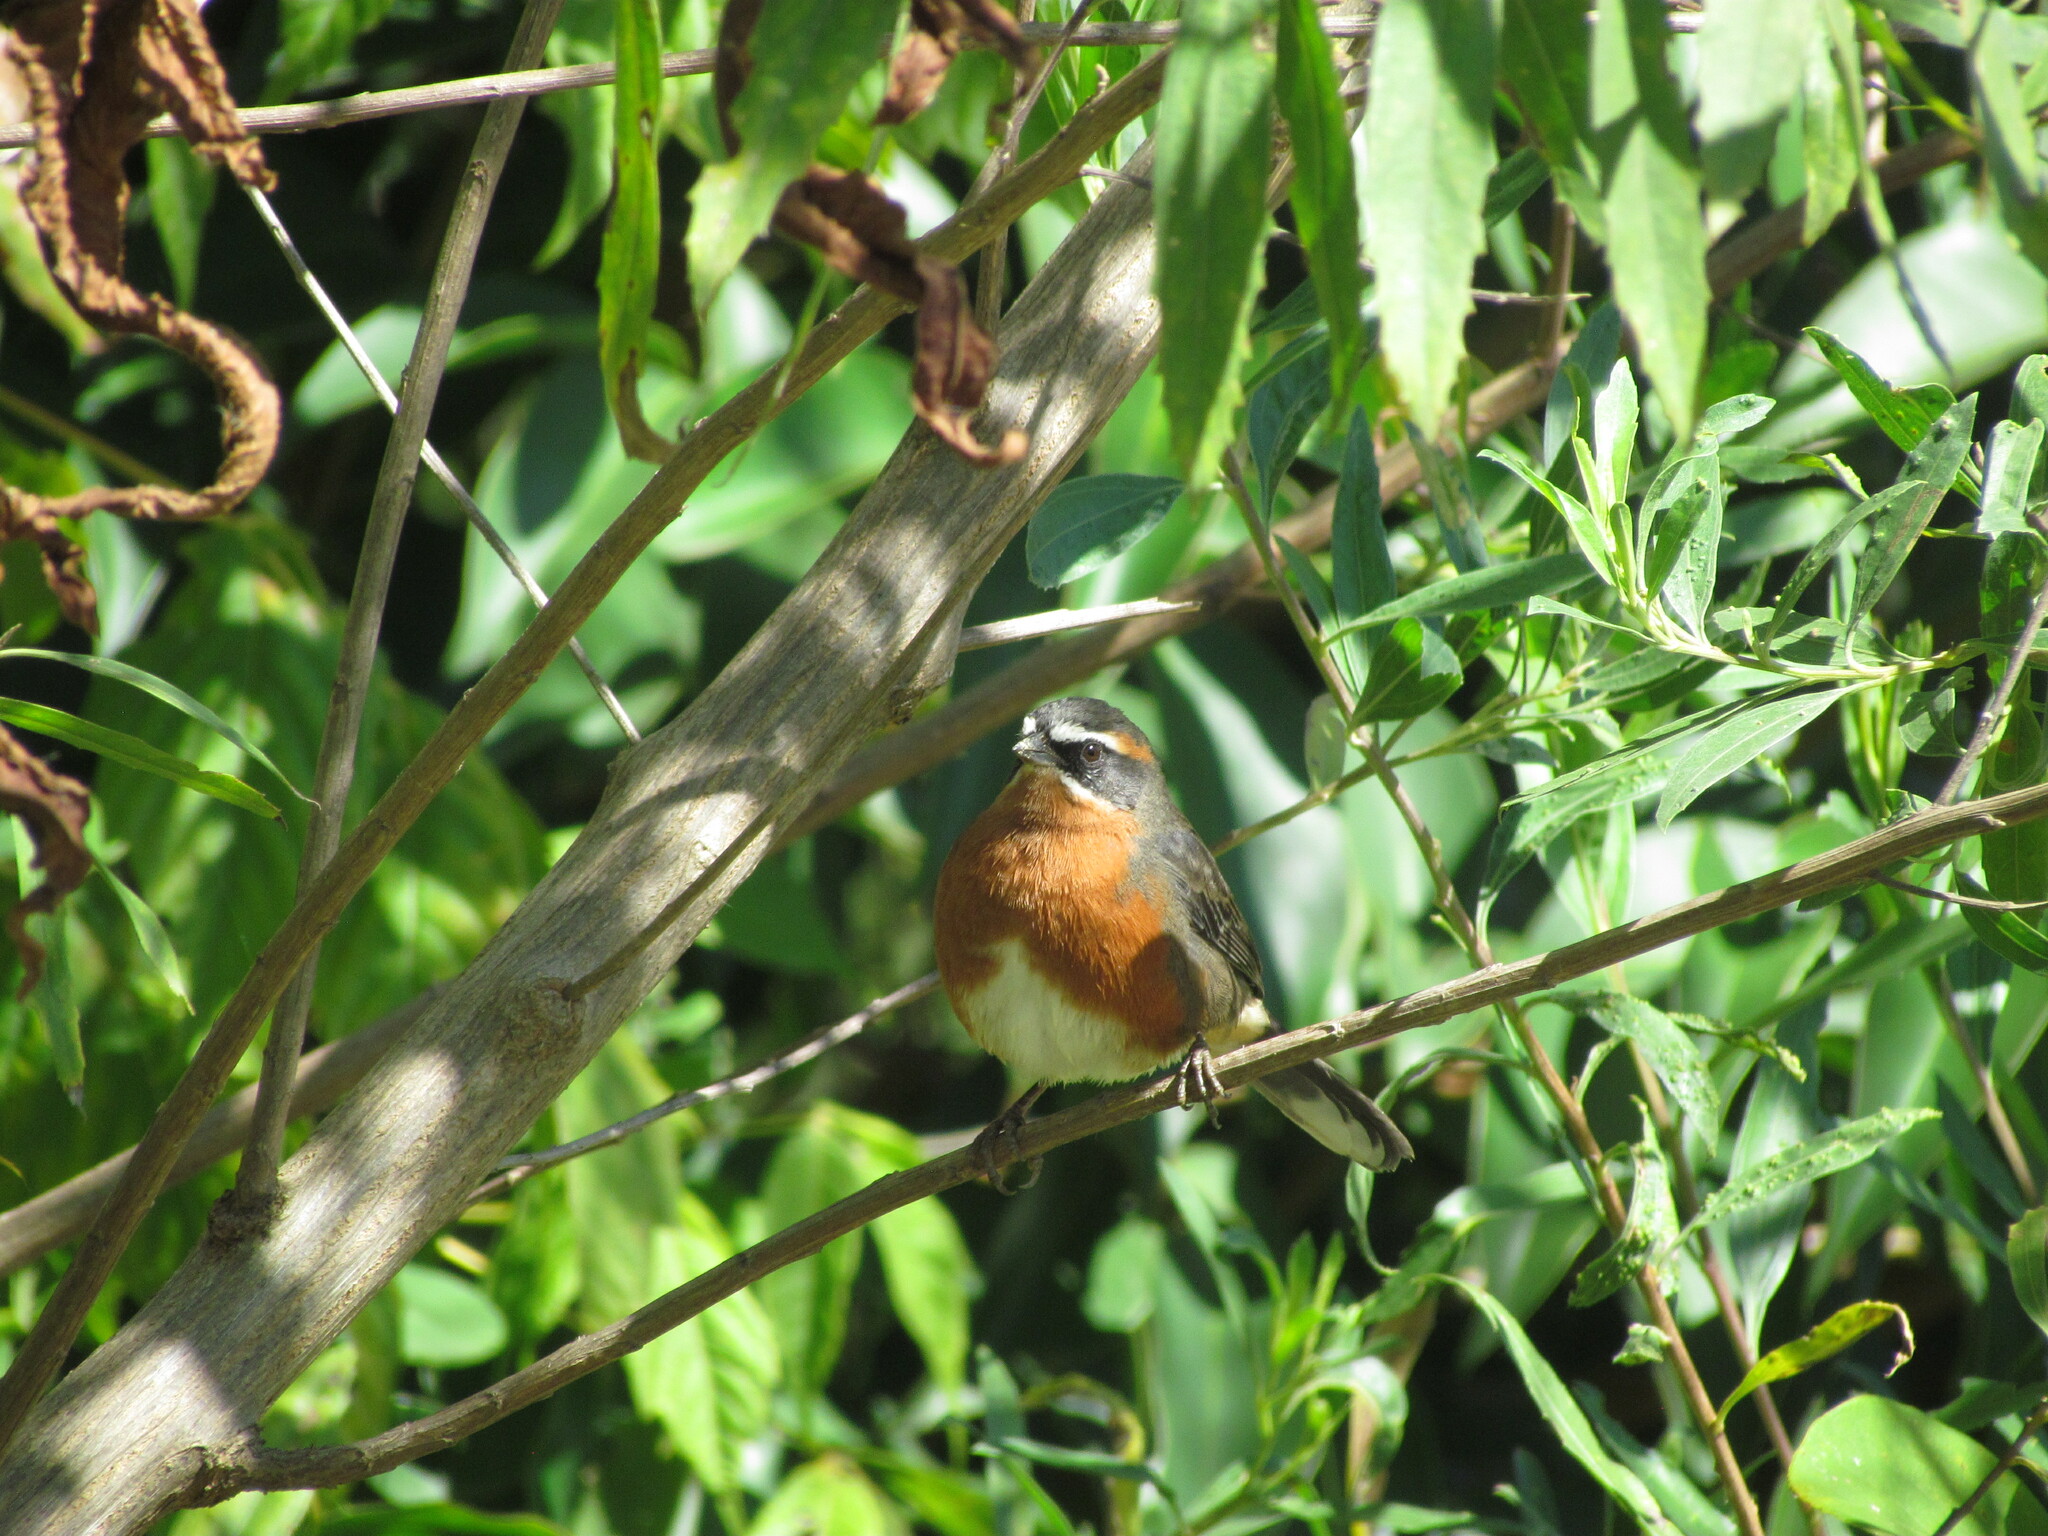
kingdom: Animalia
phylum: Chordata
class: Aves
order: Passeriformes
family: Thraupidae
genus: Poospiza
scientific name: Poospiza nigrorufa
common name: Black-and-rufous warbling finch
